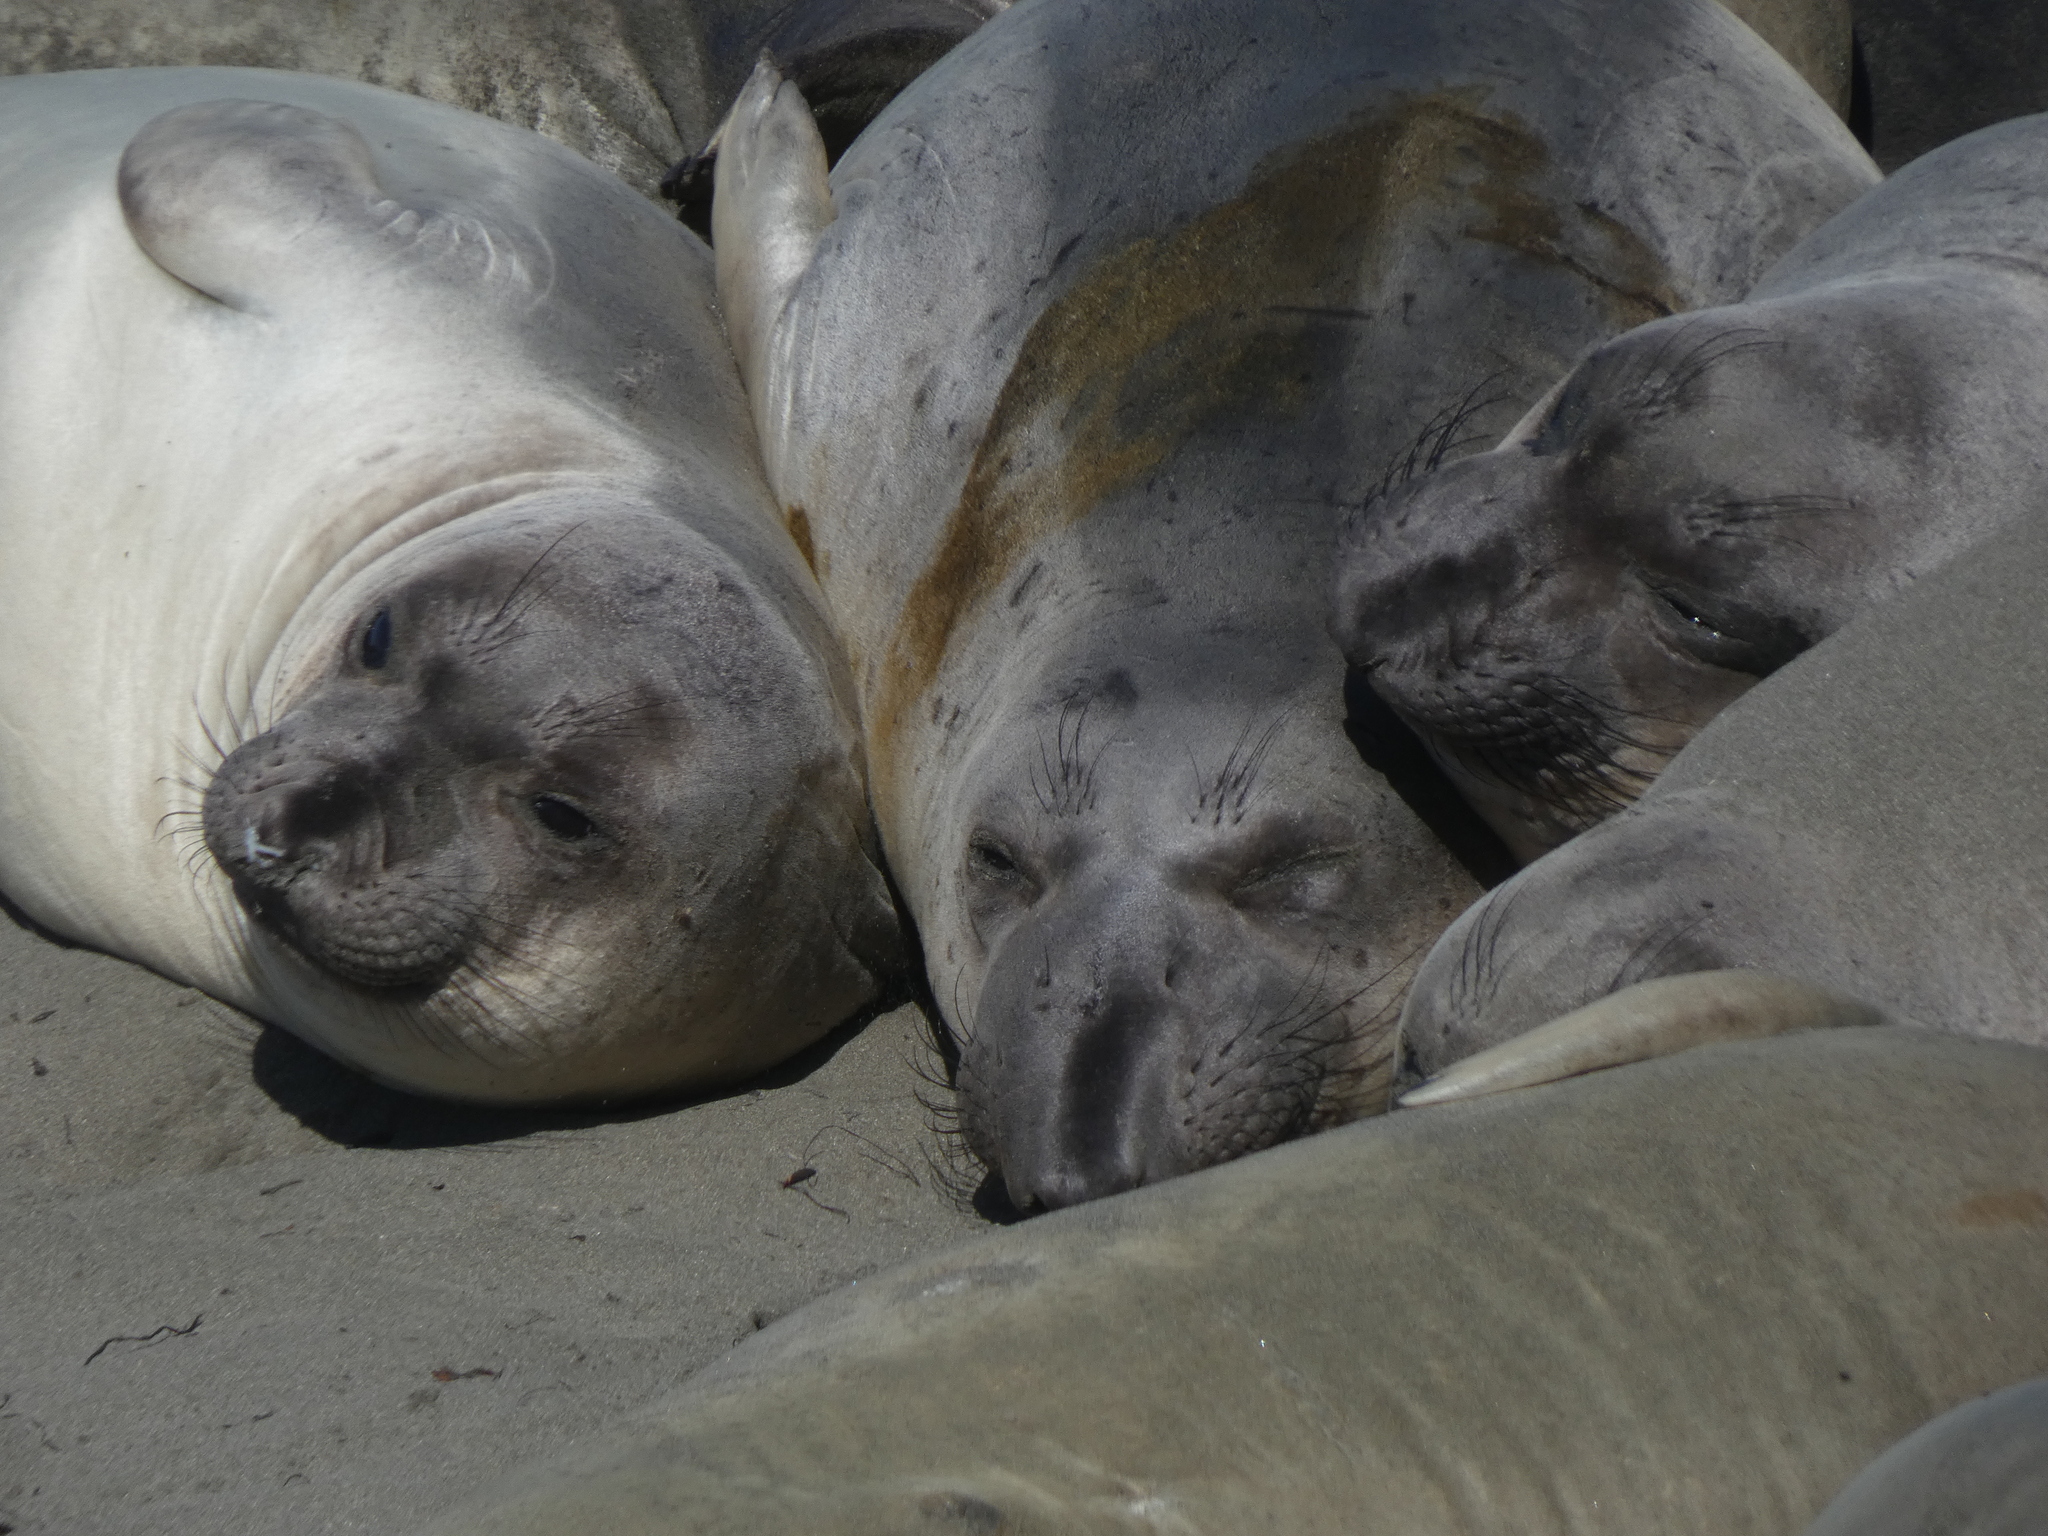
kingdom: Animalia
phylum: Chordata
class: Mammalia
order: Carnivora
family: Phocidae
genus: Mirounga
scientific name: Mirounga angustirostris
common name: Northern elephant seal
